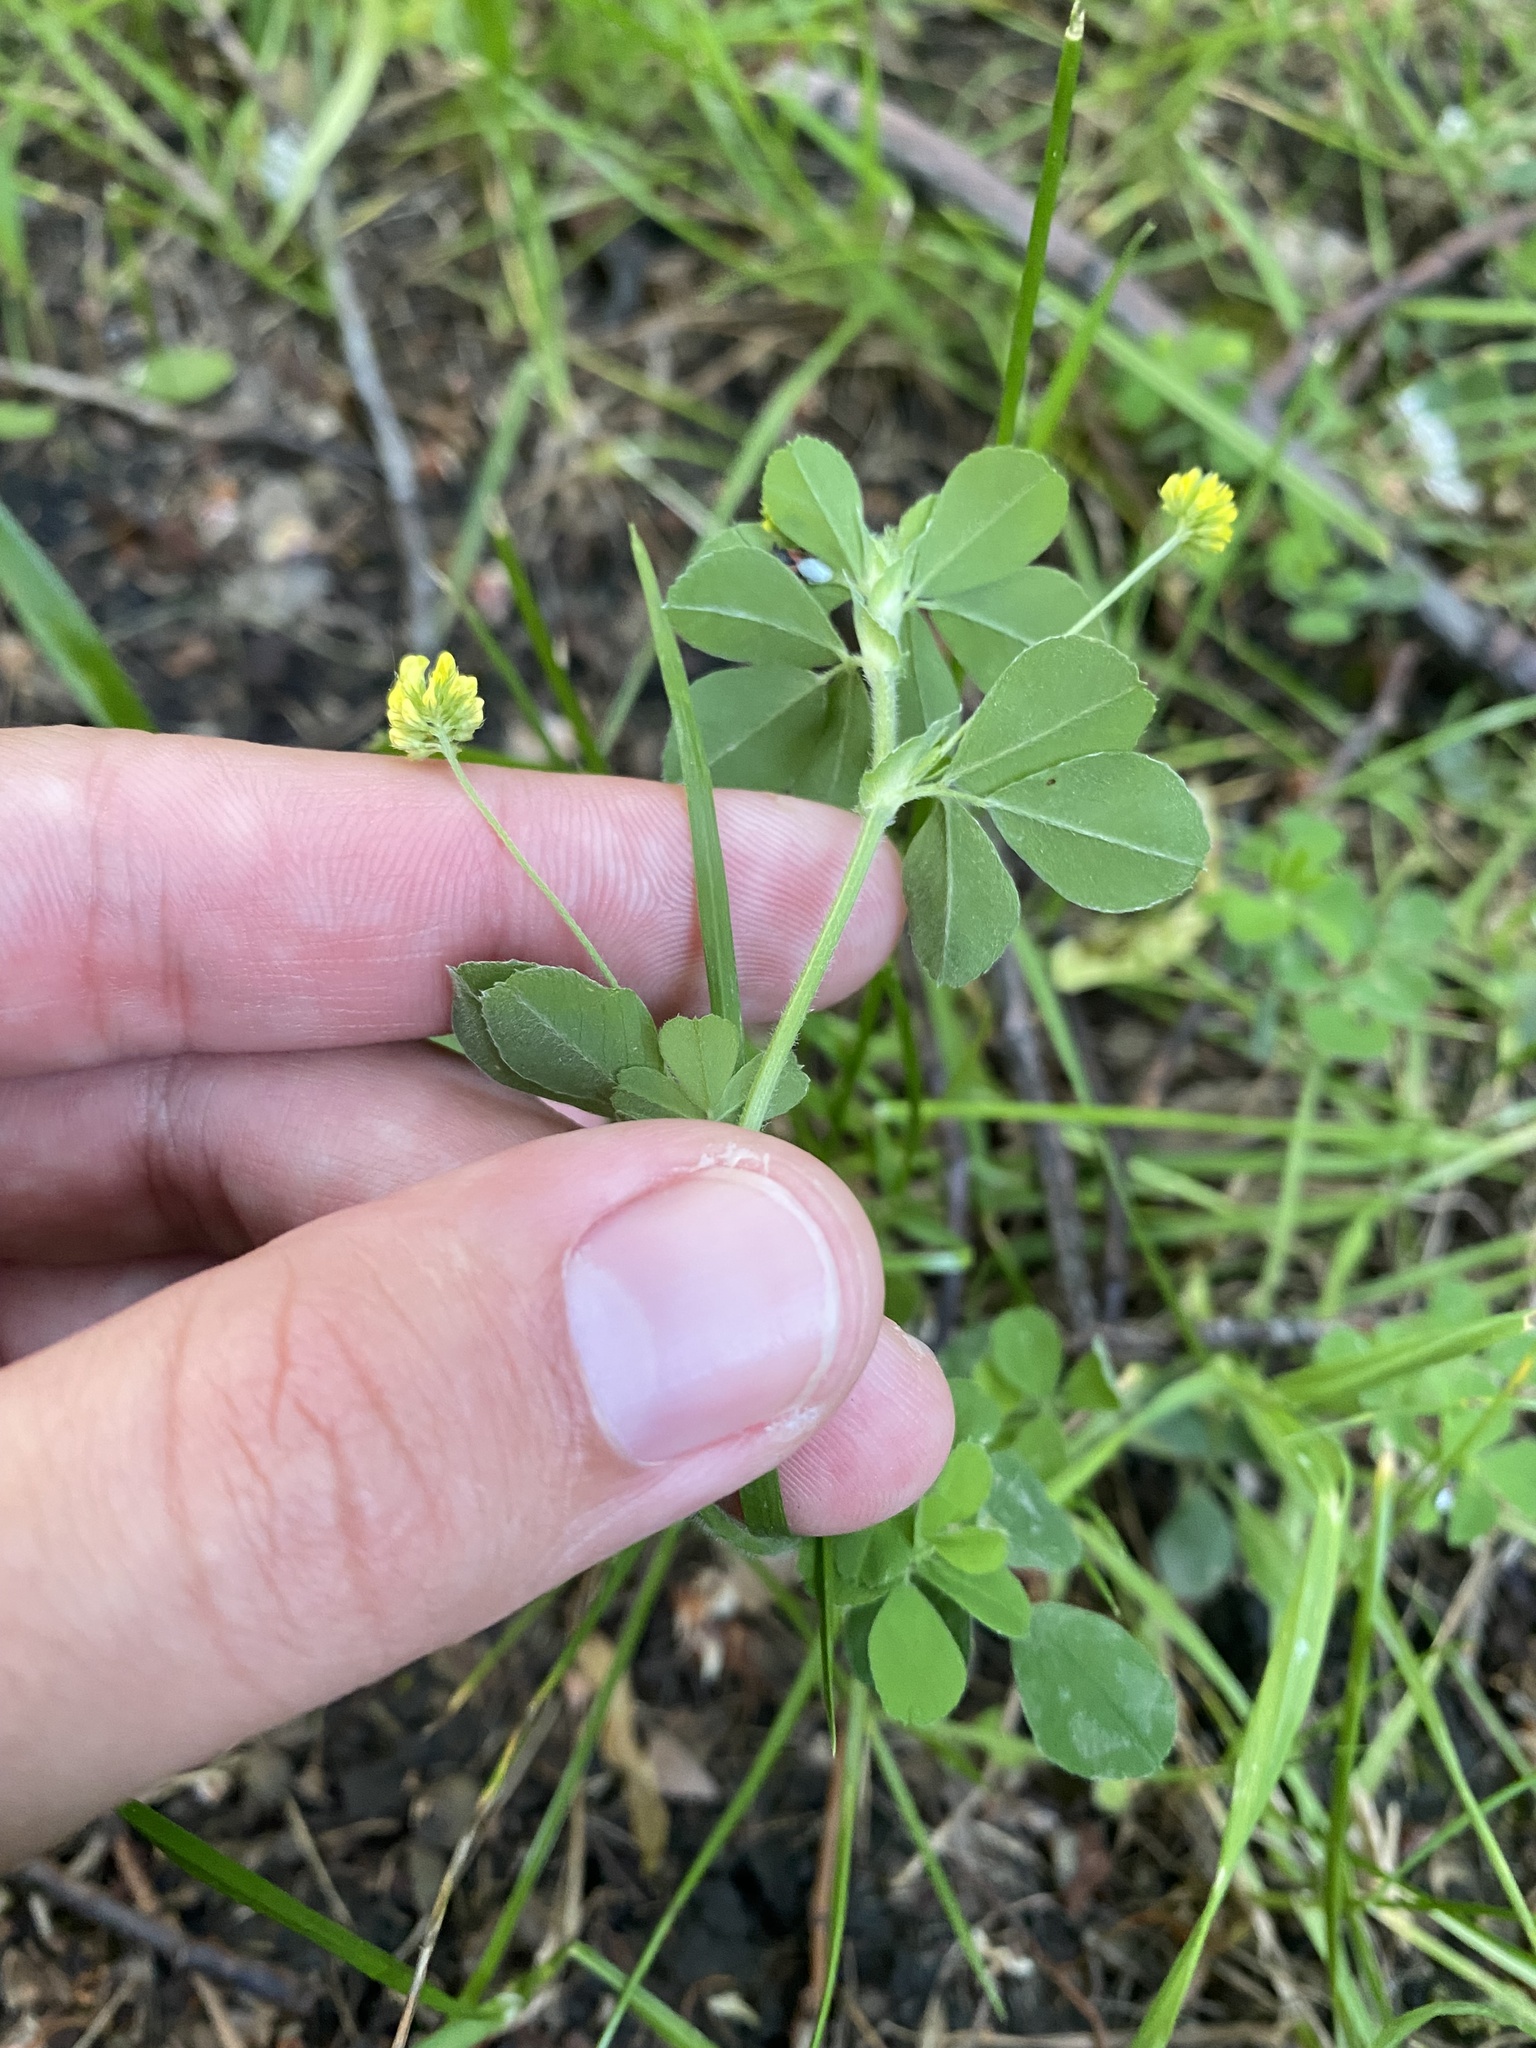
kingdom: Plantae
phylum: Tracheophyta
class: Magnoliopsida
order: Fabales
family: Fabaceae
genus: Medicago
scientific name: Medicago lupulina
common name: Black medick
